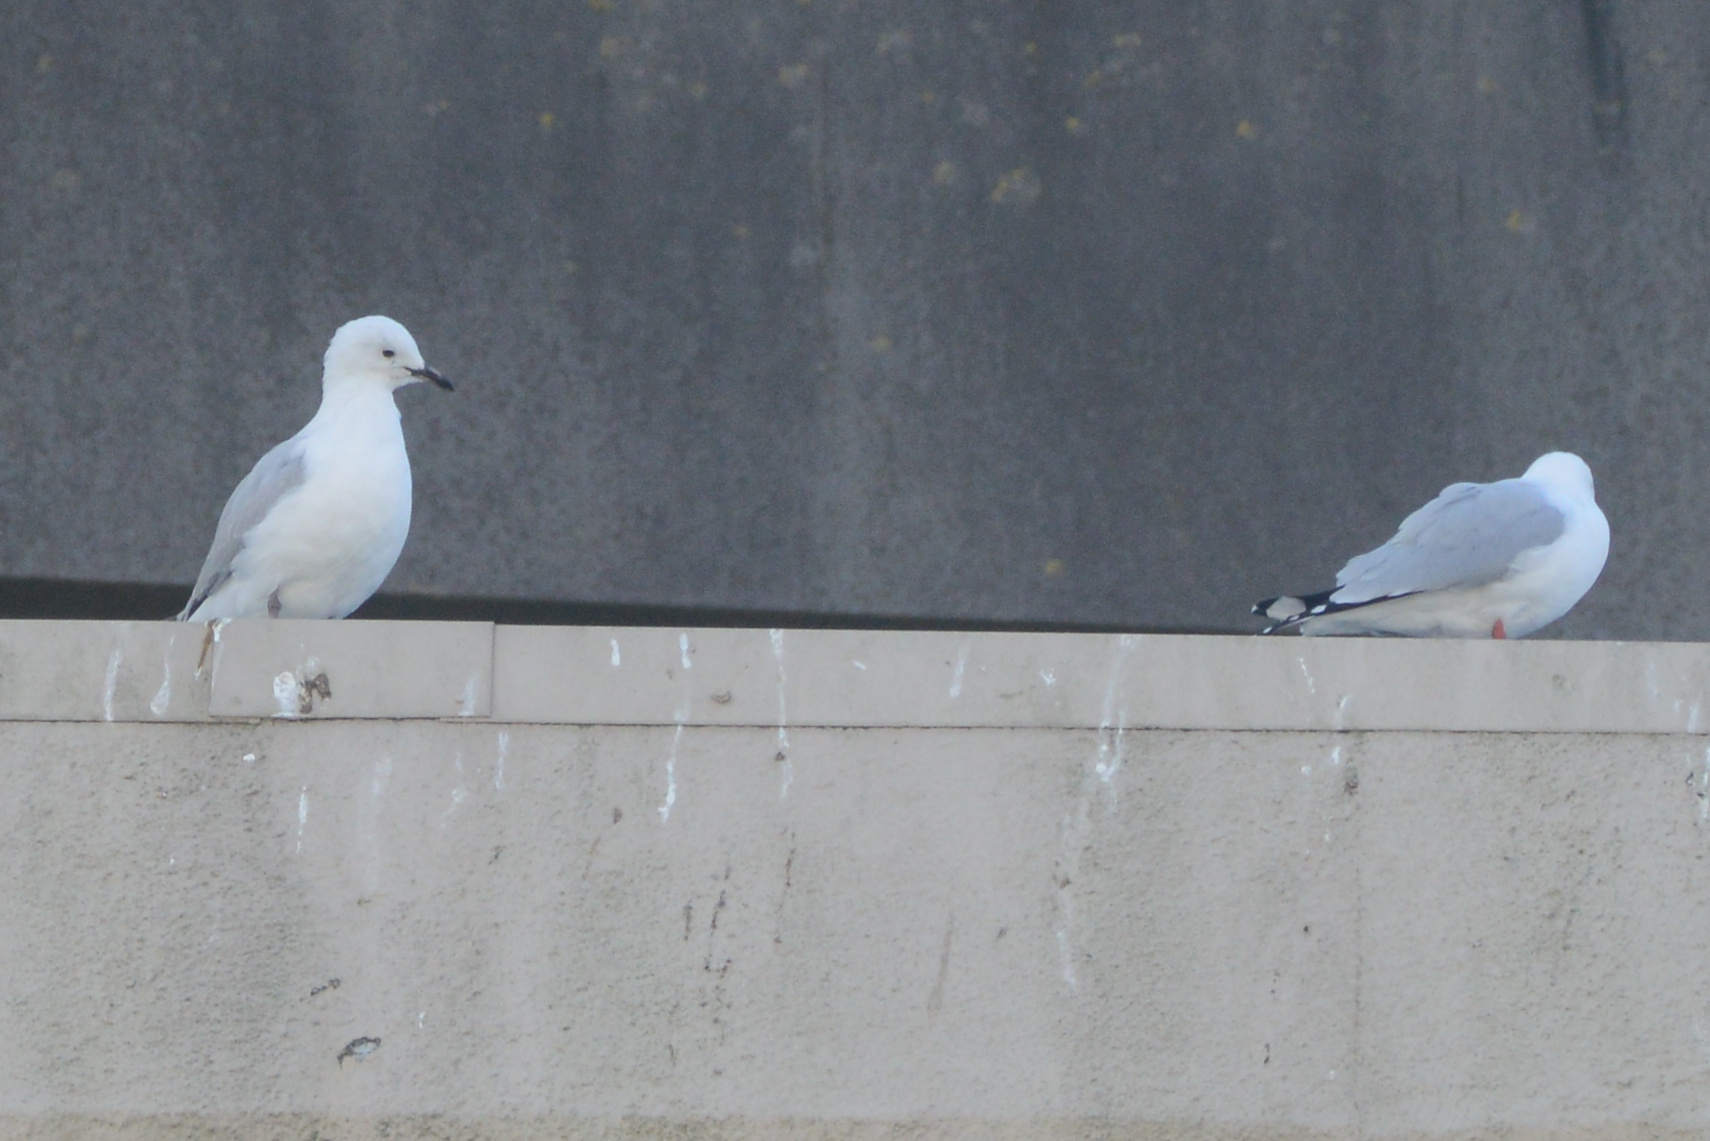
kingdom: Animalia
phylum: Chordata
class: Aves
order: Charadriiformes
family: Laridae
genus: Chroicocephalus
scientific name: Chroicocephalus novaehollandiae
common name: Silver gull
